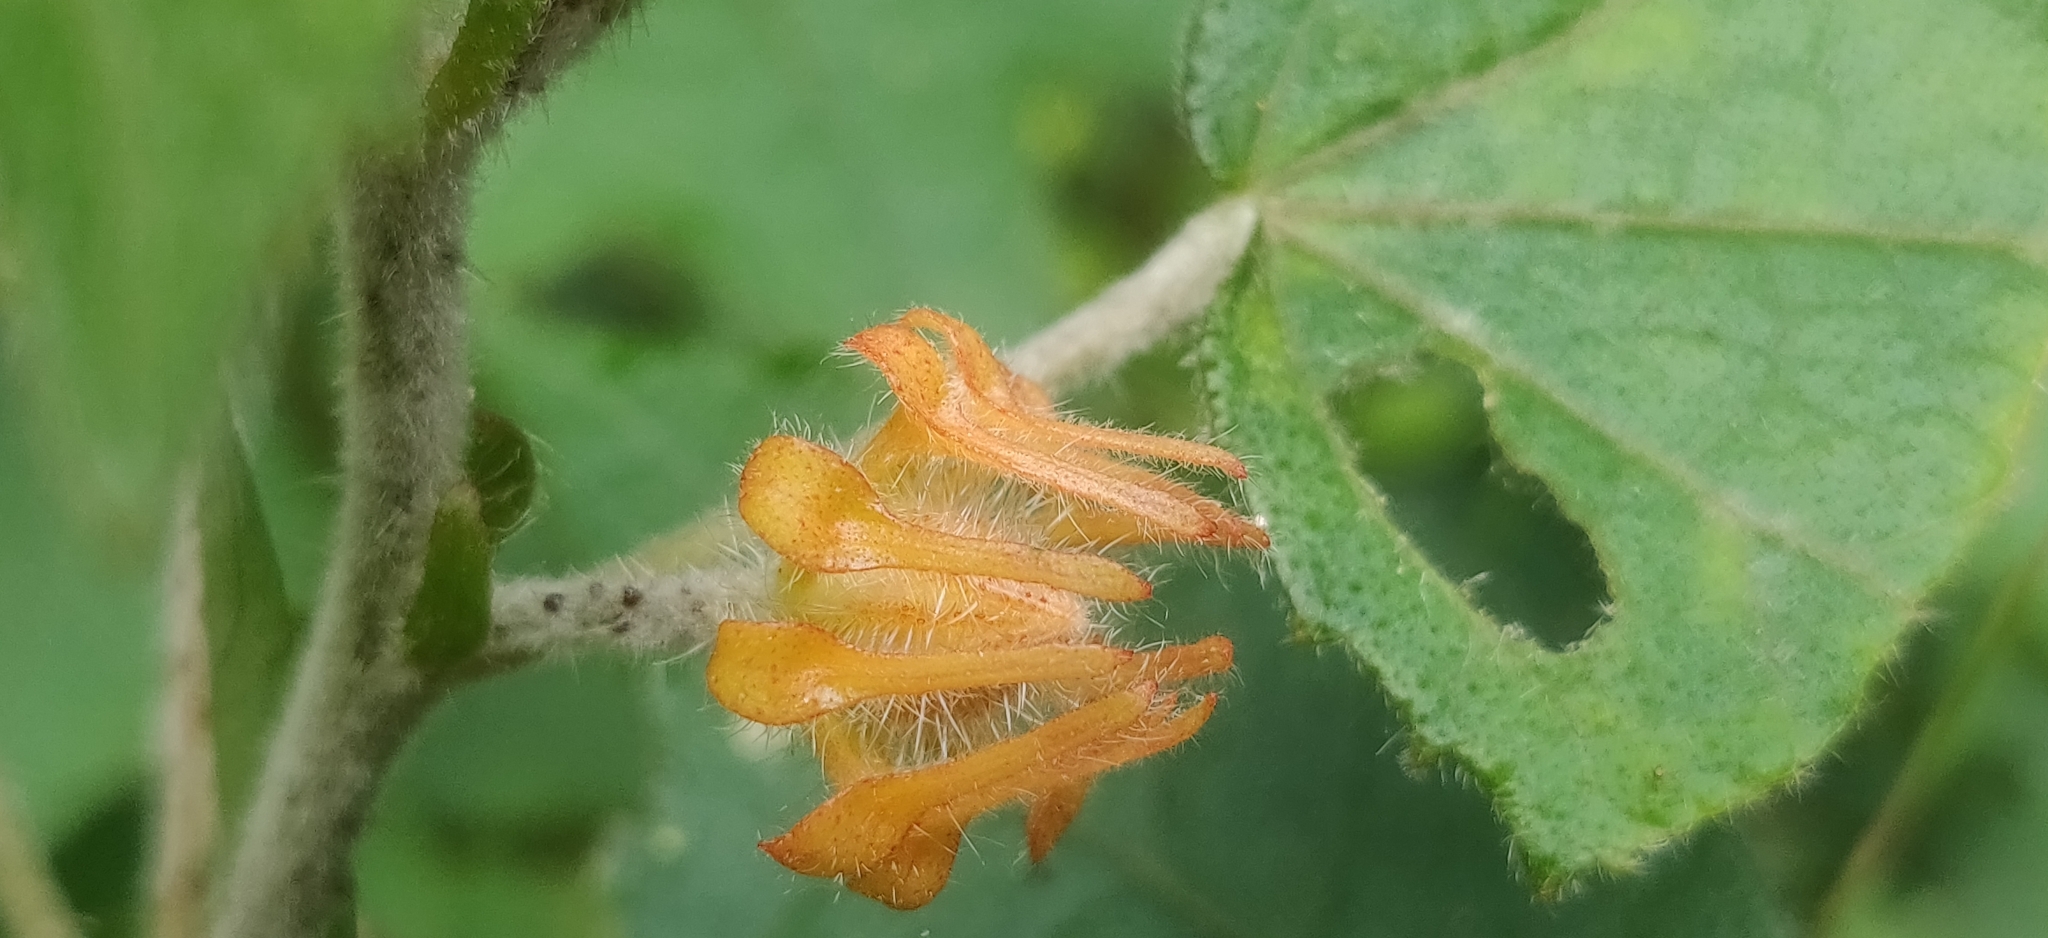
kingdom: Plantae
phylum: Tracheophyta
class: Magnoliopsida
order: Malvales
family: Malvaceae
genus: Hibiscus
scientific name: Hibiscus surattensis
